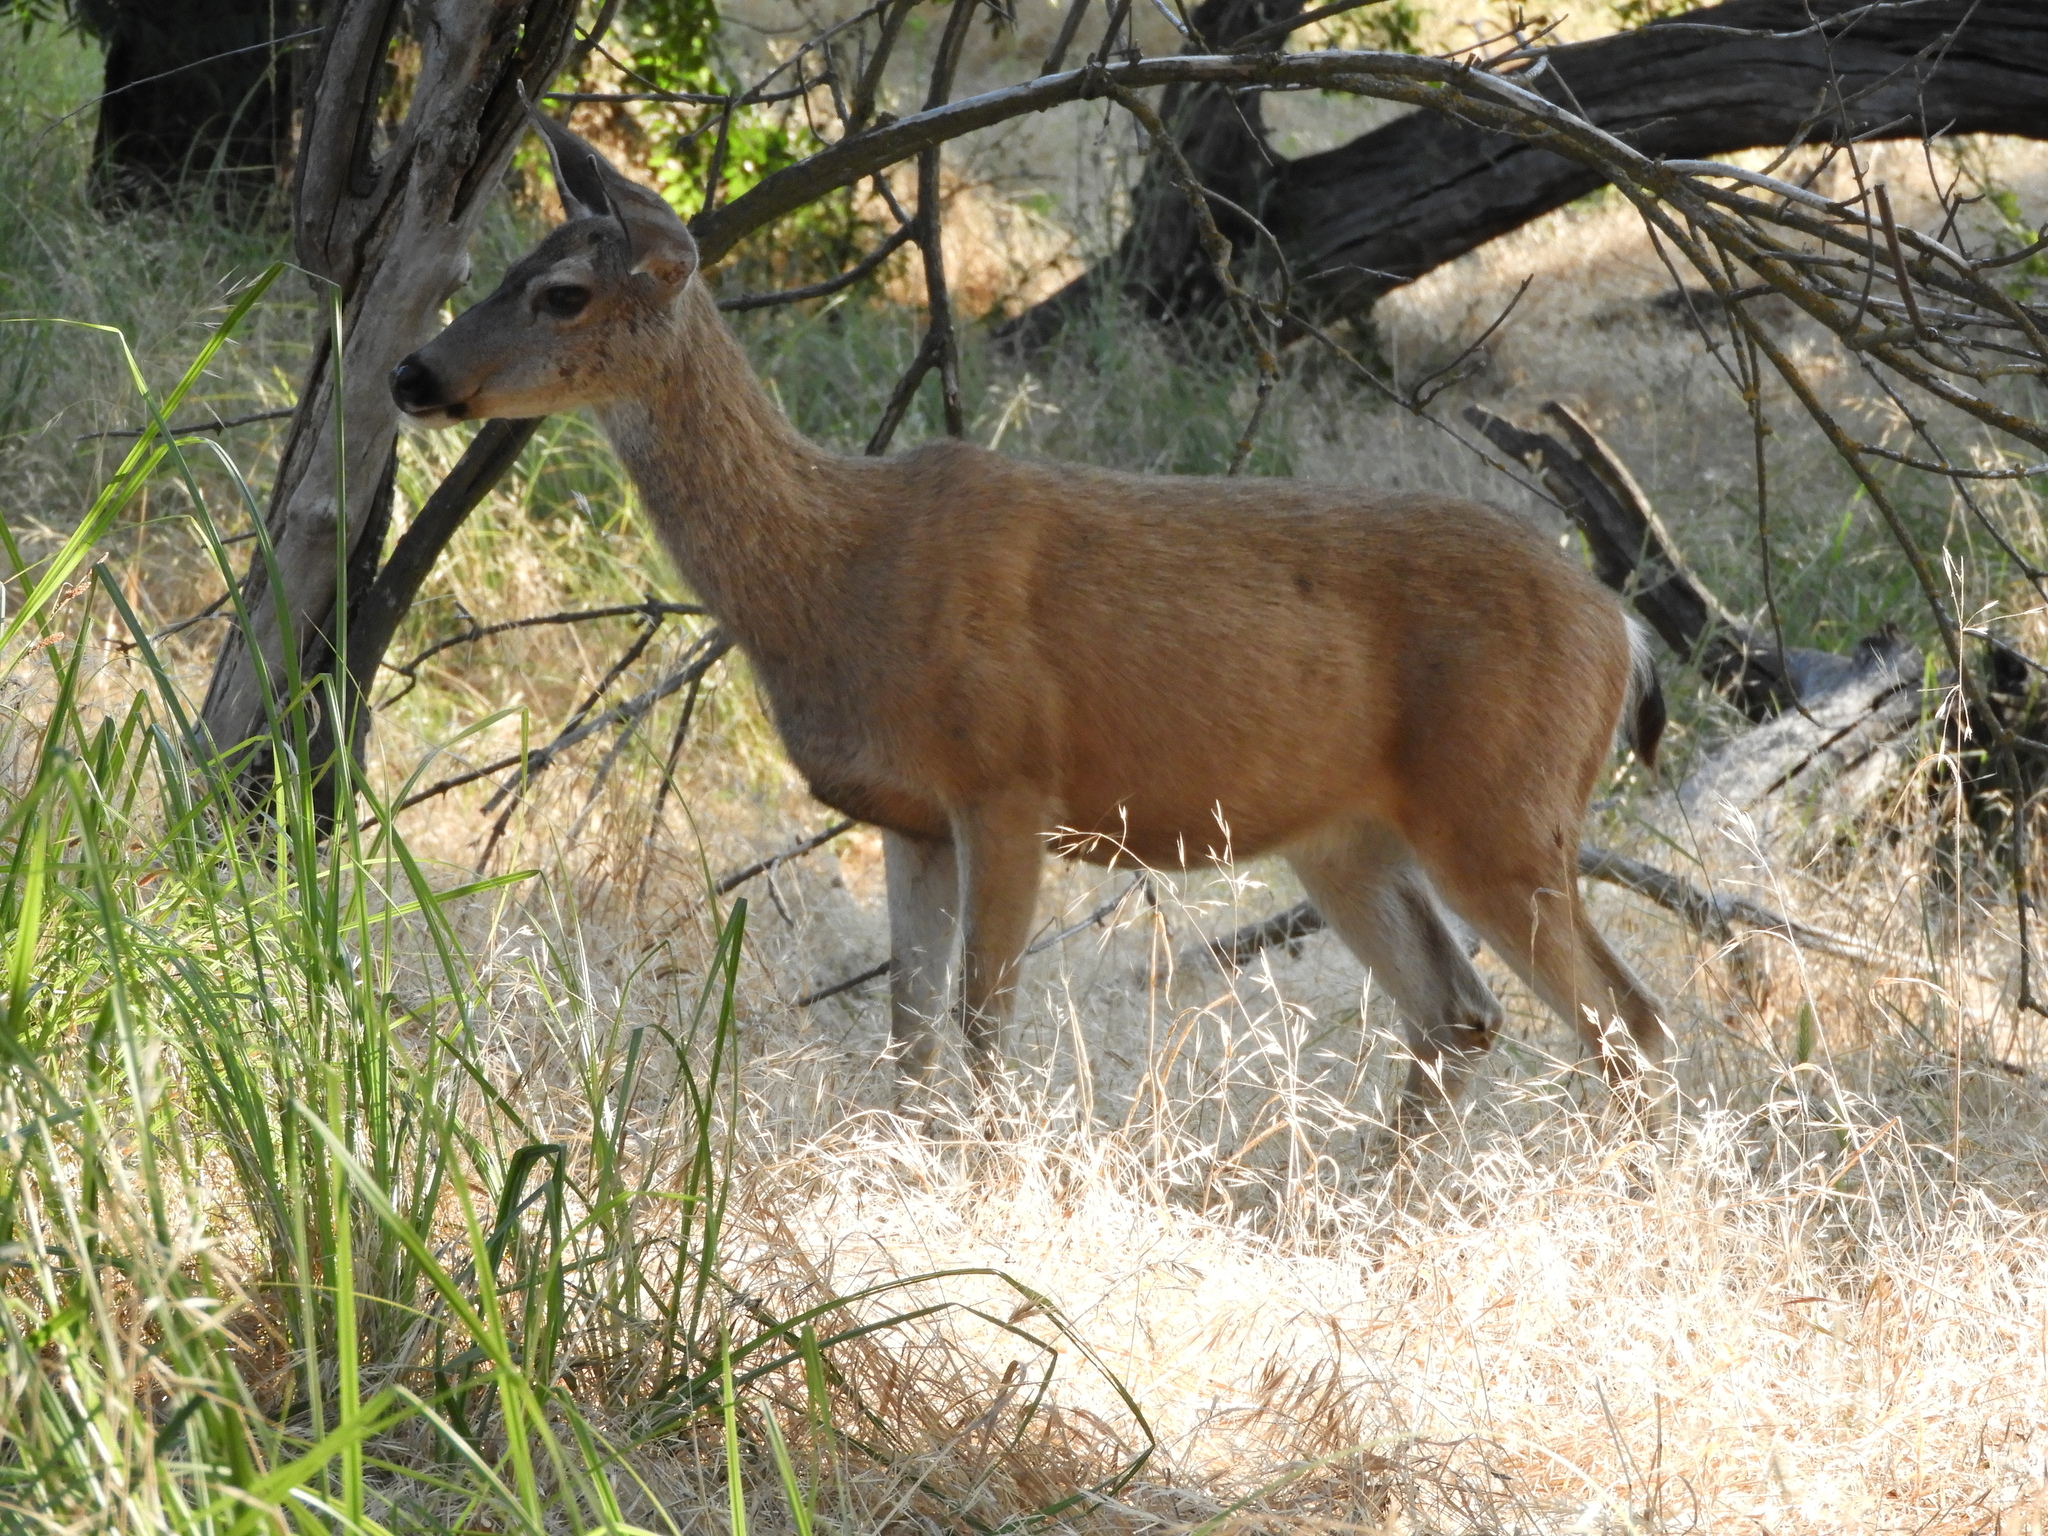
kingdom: Animalia
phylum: Chordata
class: Mammalia
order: Artiodactyla
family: Cervidae
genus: Odocoileus
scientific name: Odocoileus hemionus
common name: Mule deer
